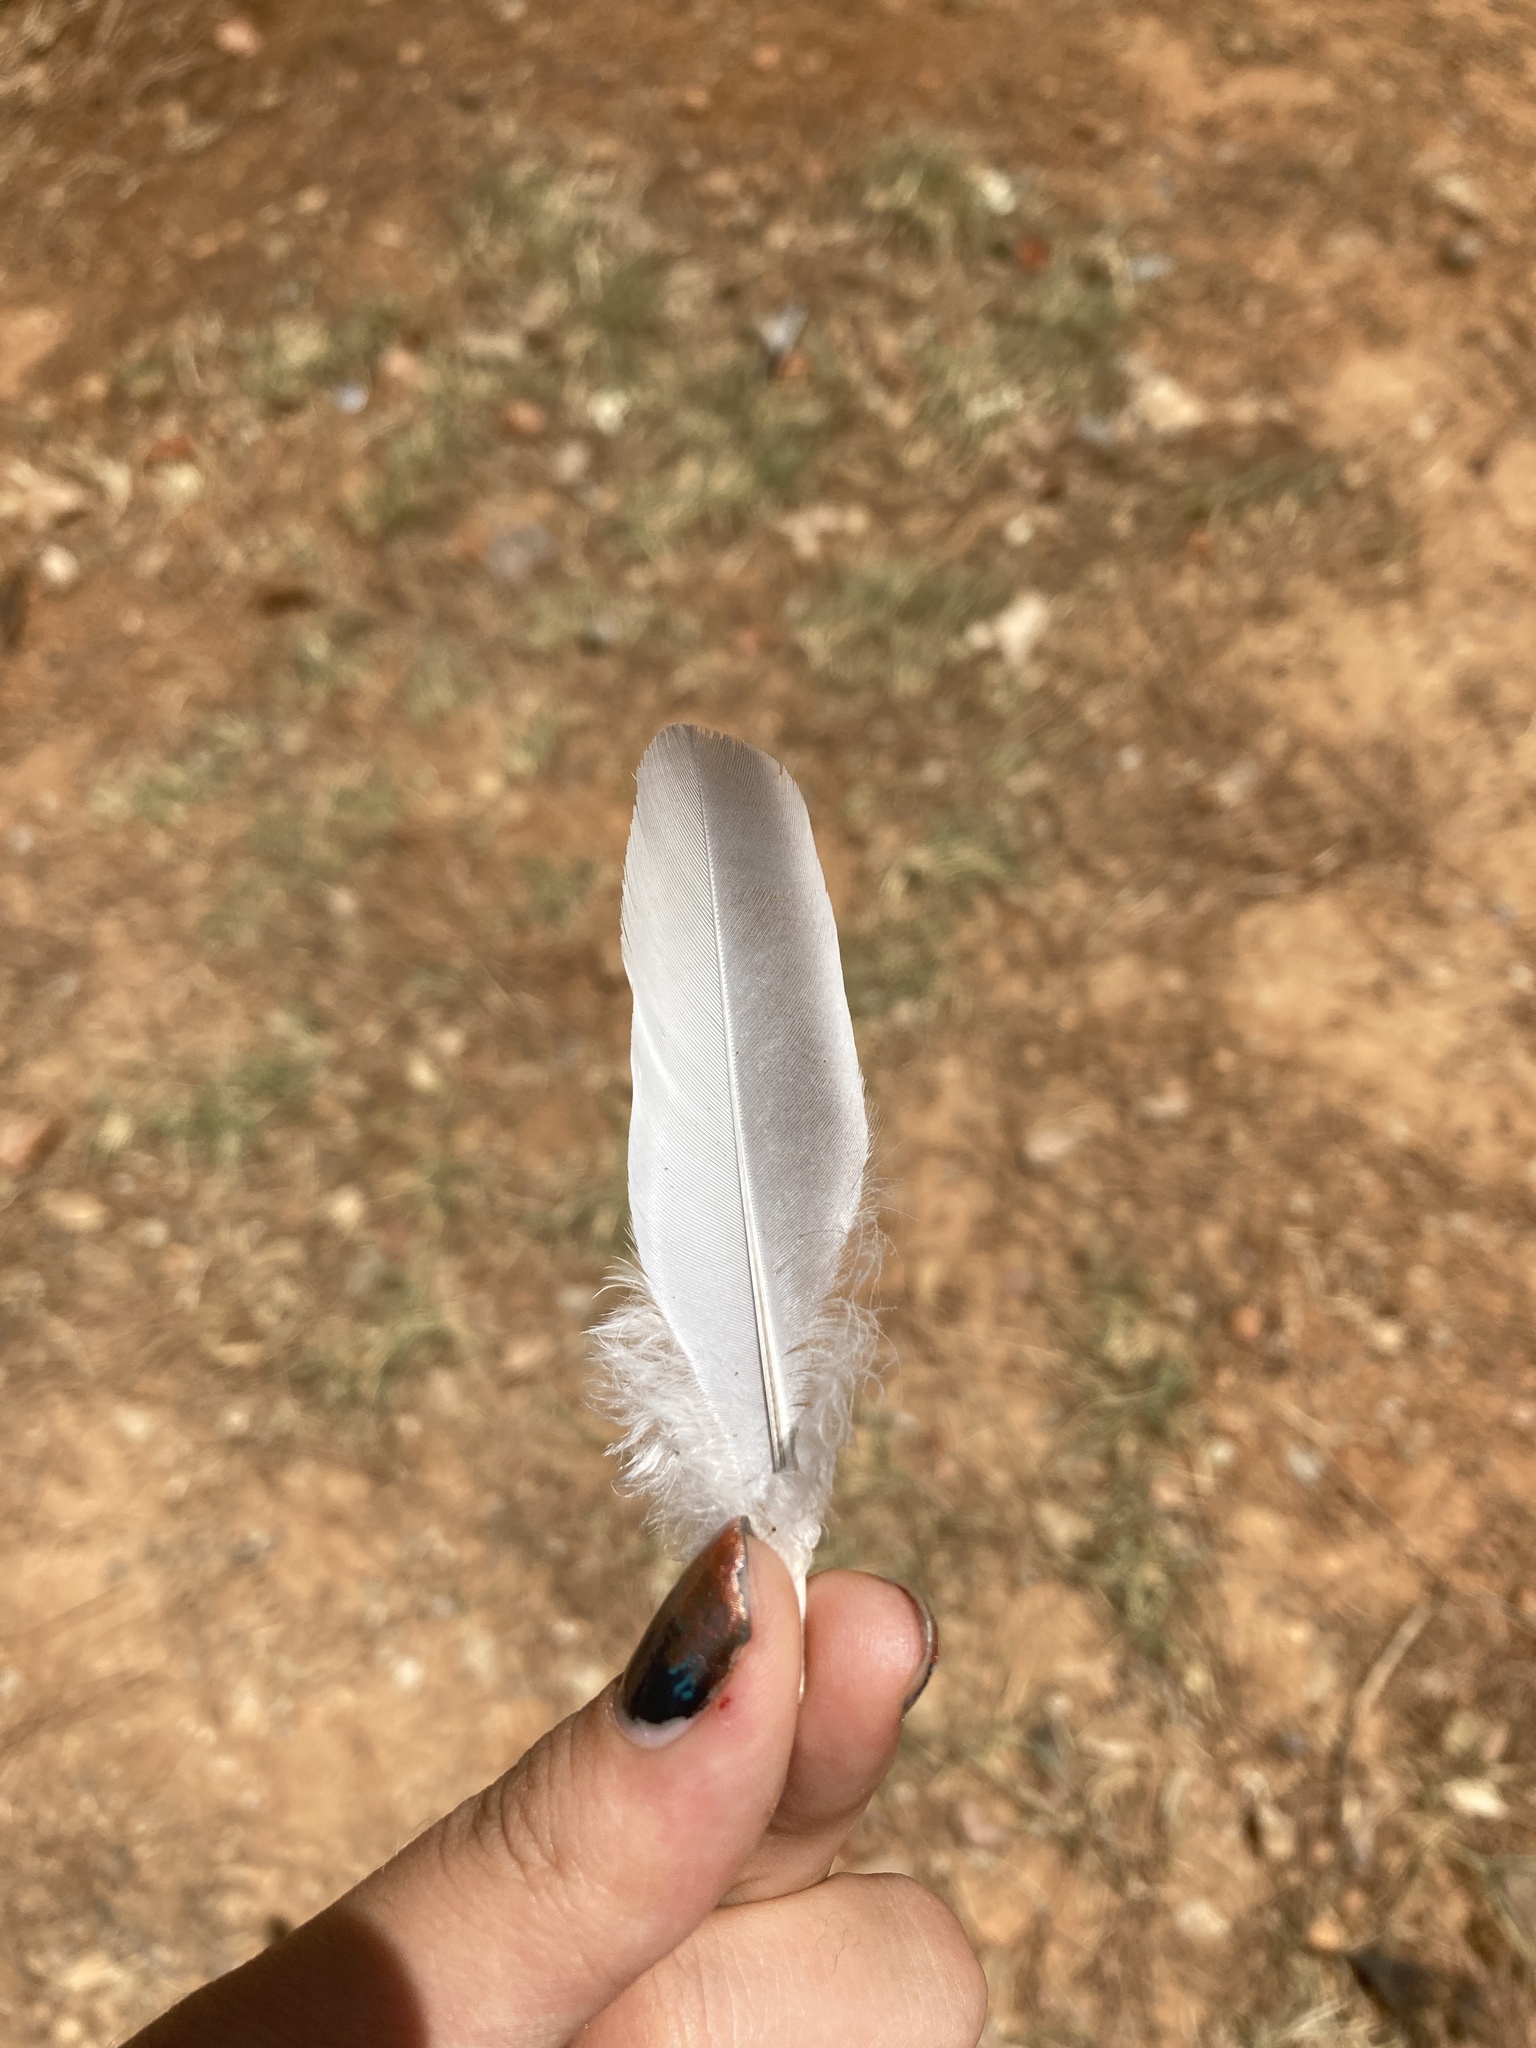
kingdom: Animalia
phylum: Chordata
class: Aves
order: Columbiformes
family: Columbidae
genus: Columba
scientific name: Columba palumbus
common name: Common wood pigeon
